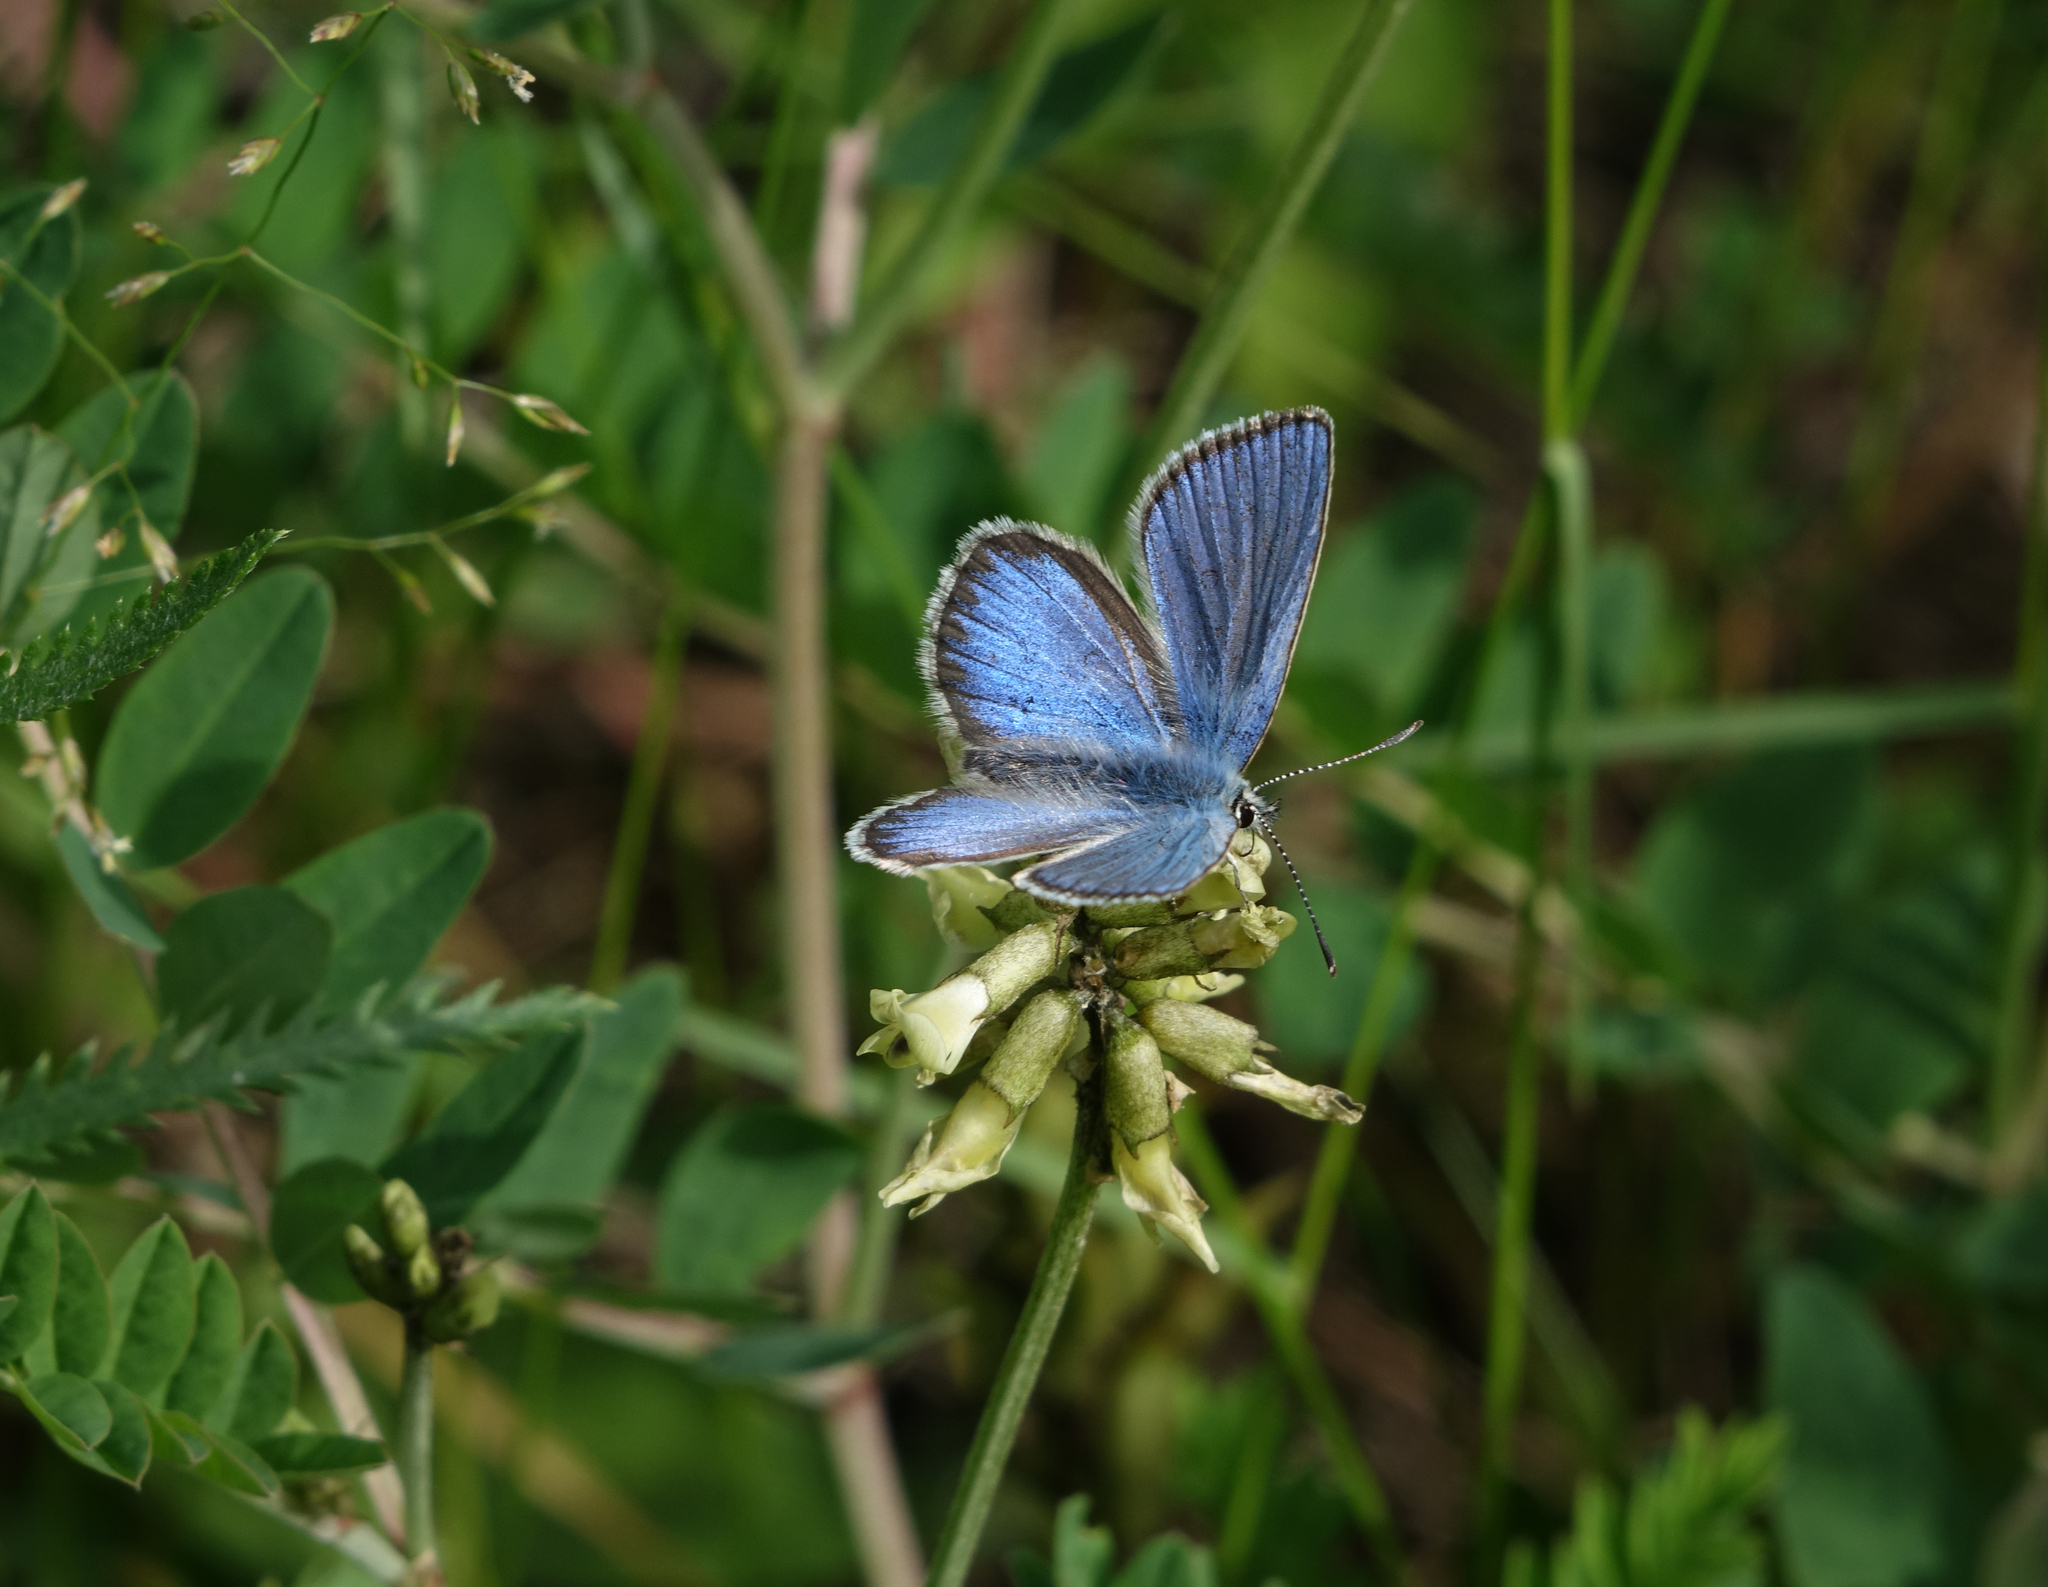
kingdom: Animalia
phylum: Arthropoda
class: Insecta
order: Lepidoptera
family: Lycaenidae
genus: Albulina
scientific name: Albulina orbitulus
